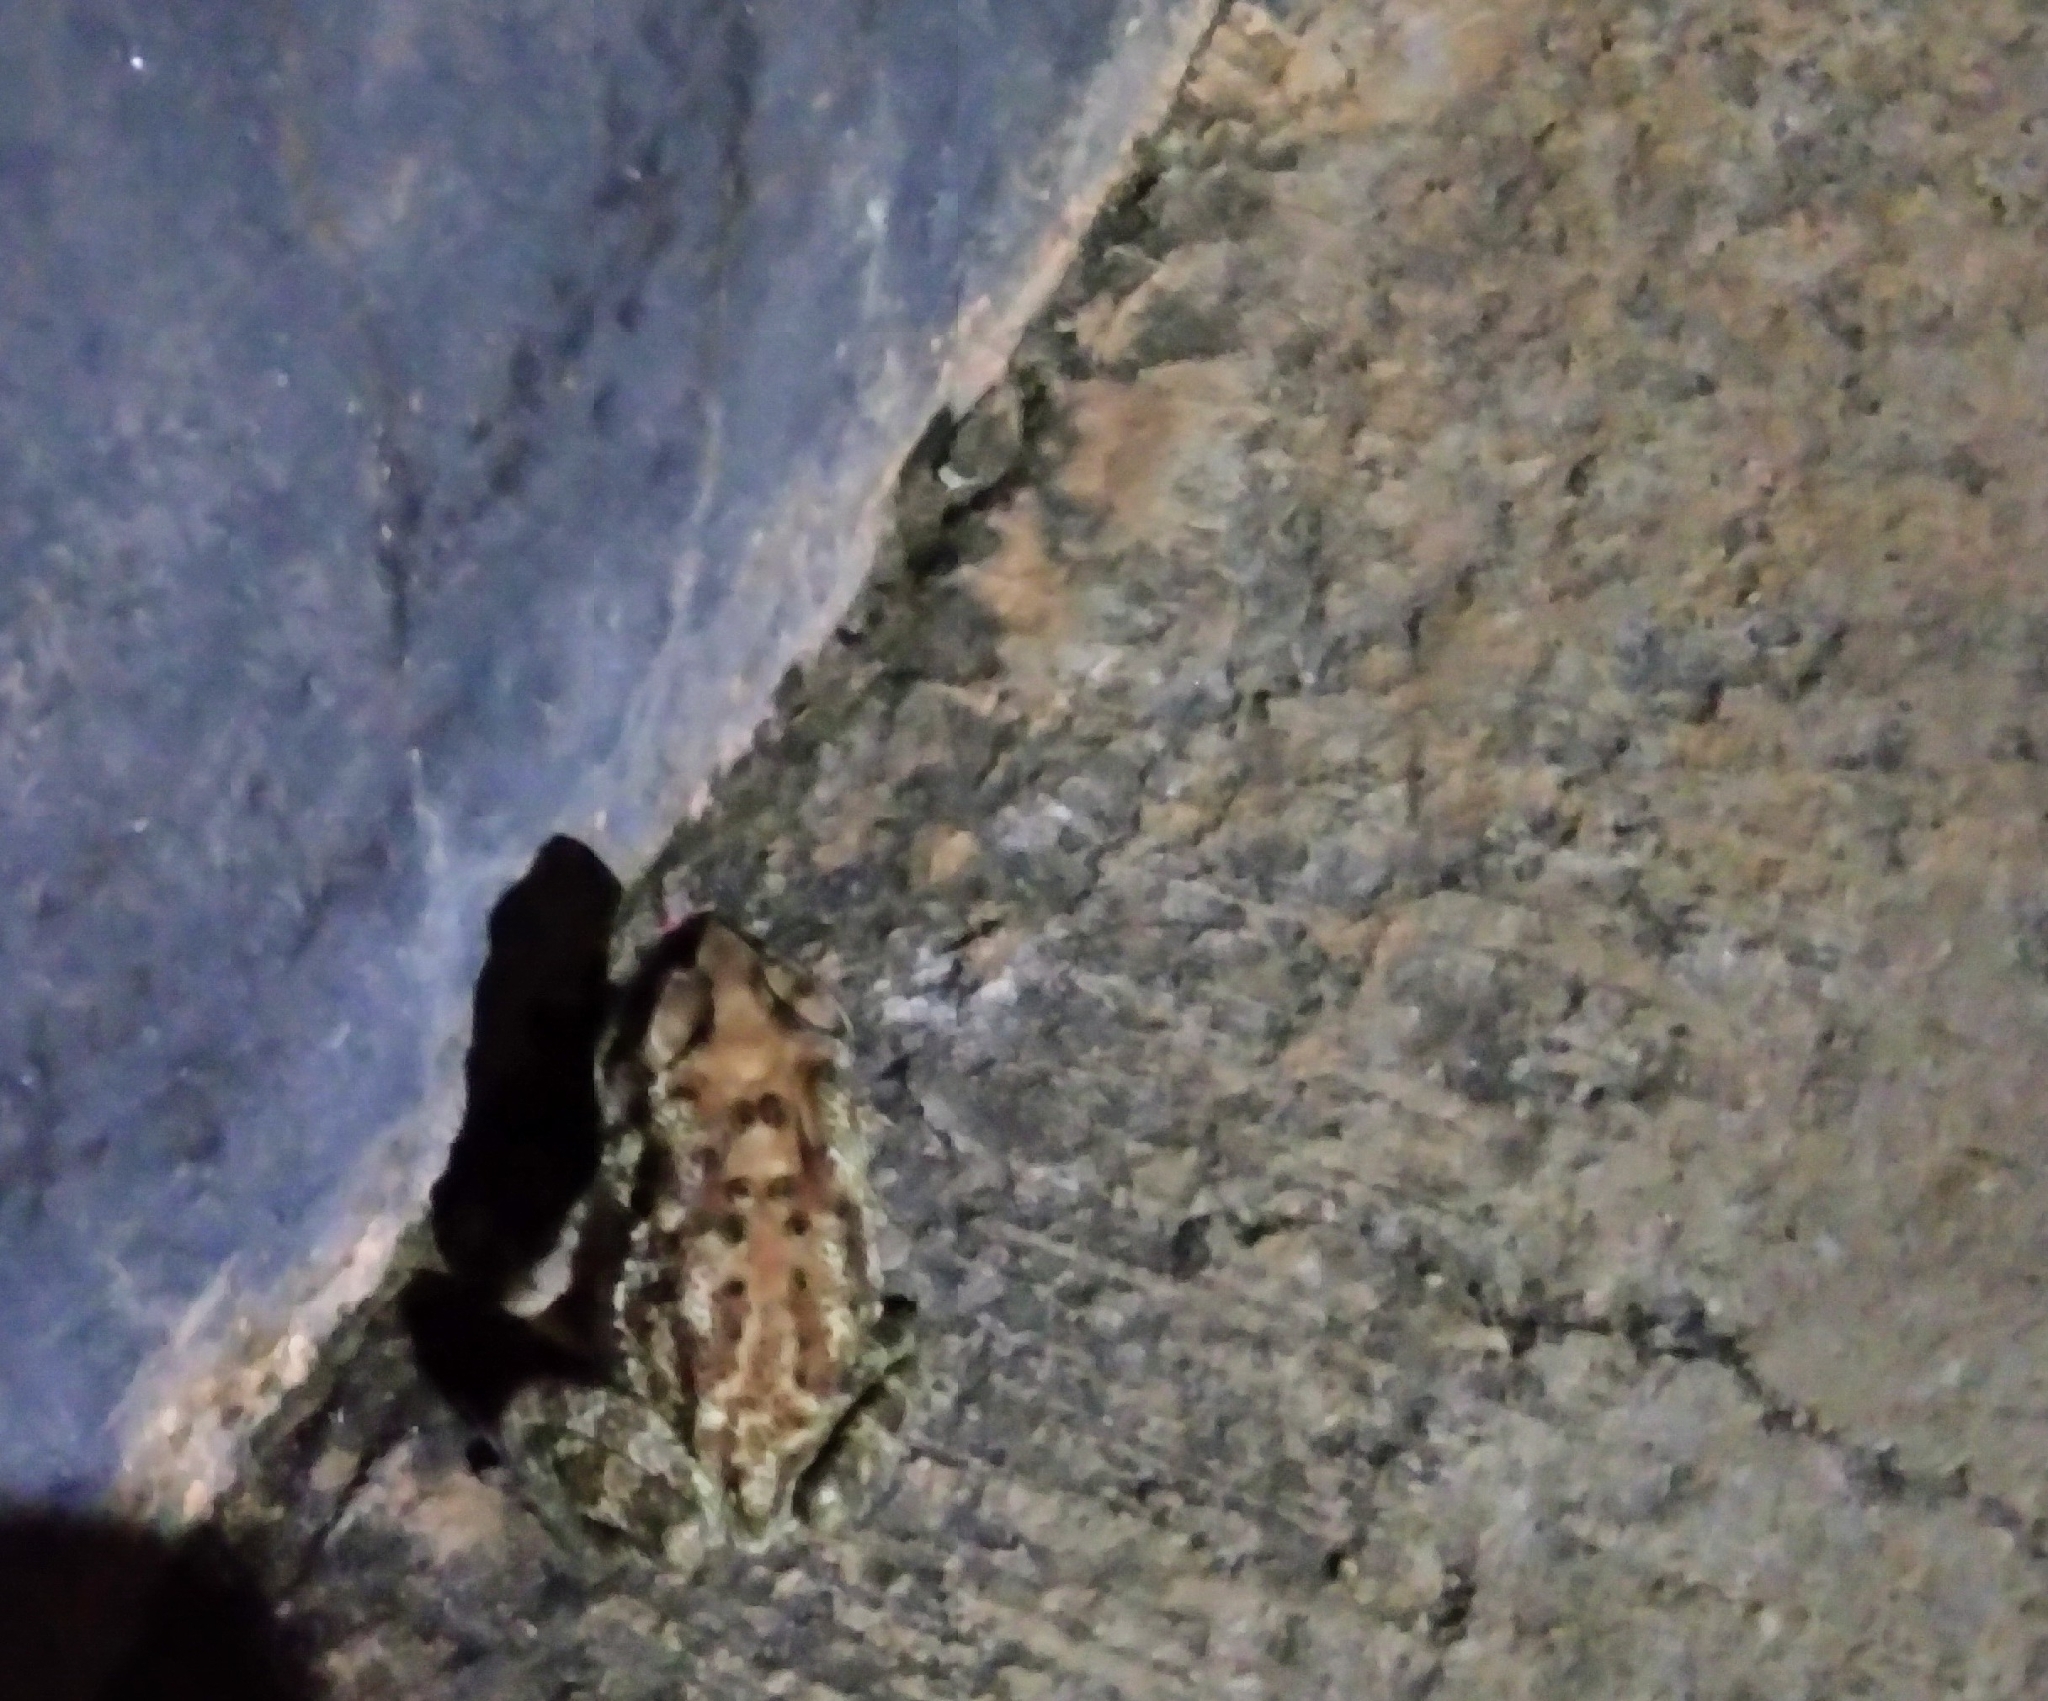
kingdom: Animalia
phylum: Chordata
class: Amphibia
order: Anura
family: Bufonidae
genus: Duttaphrynus
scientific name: Duttaphrynus melanostictus
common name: Common sunda toad
